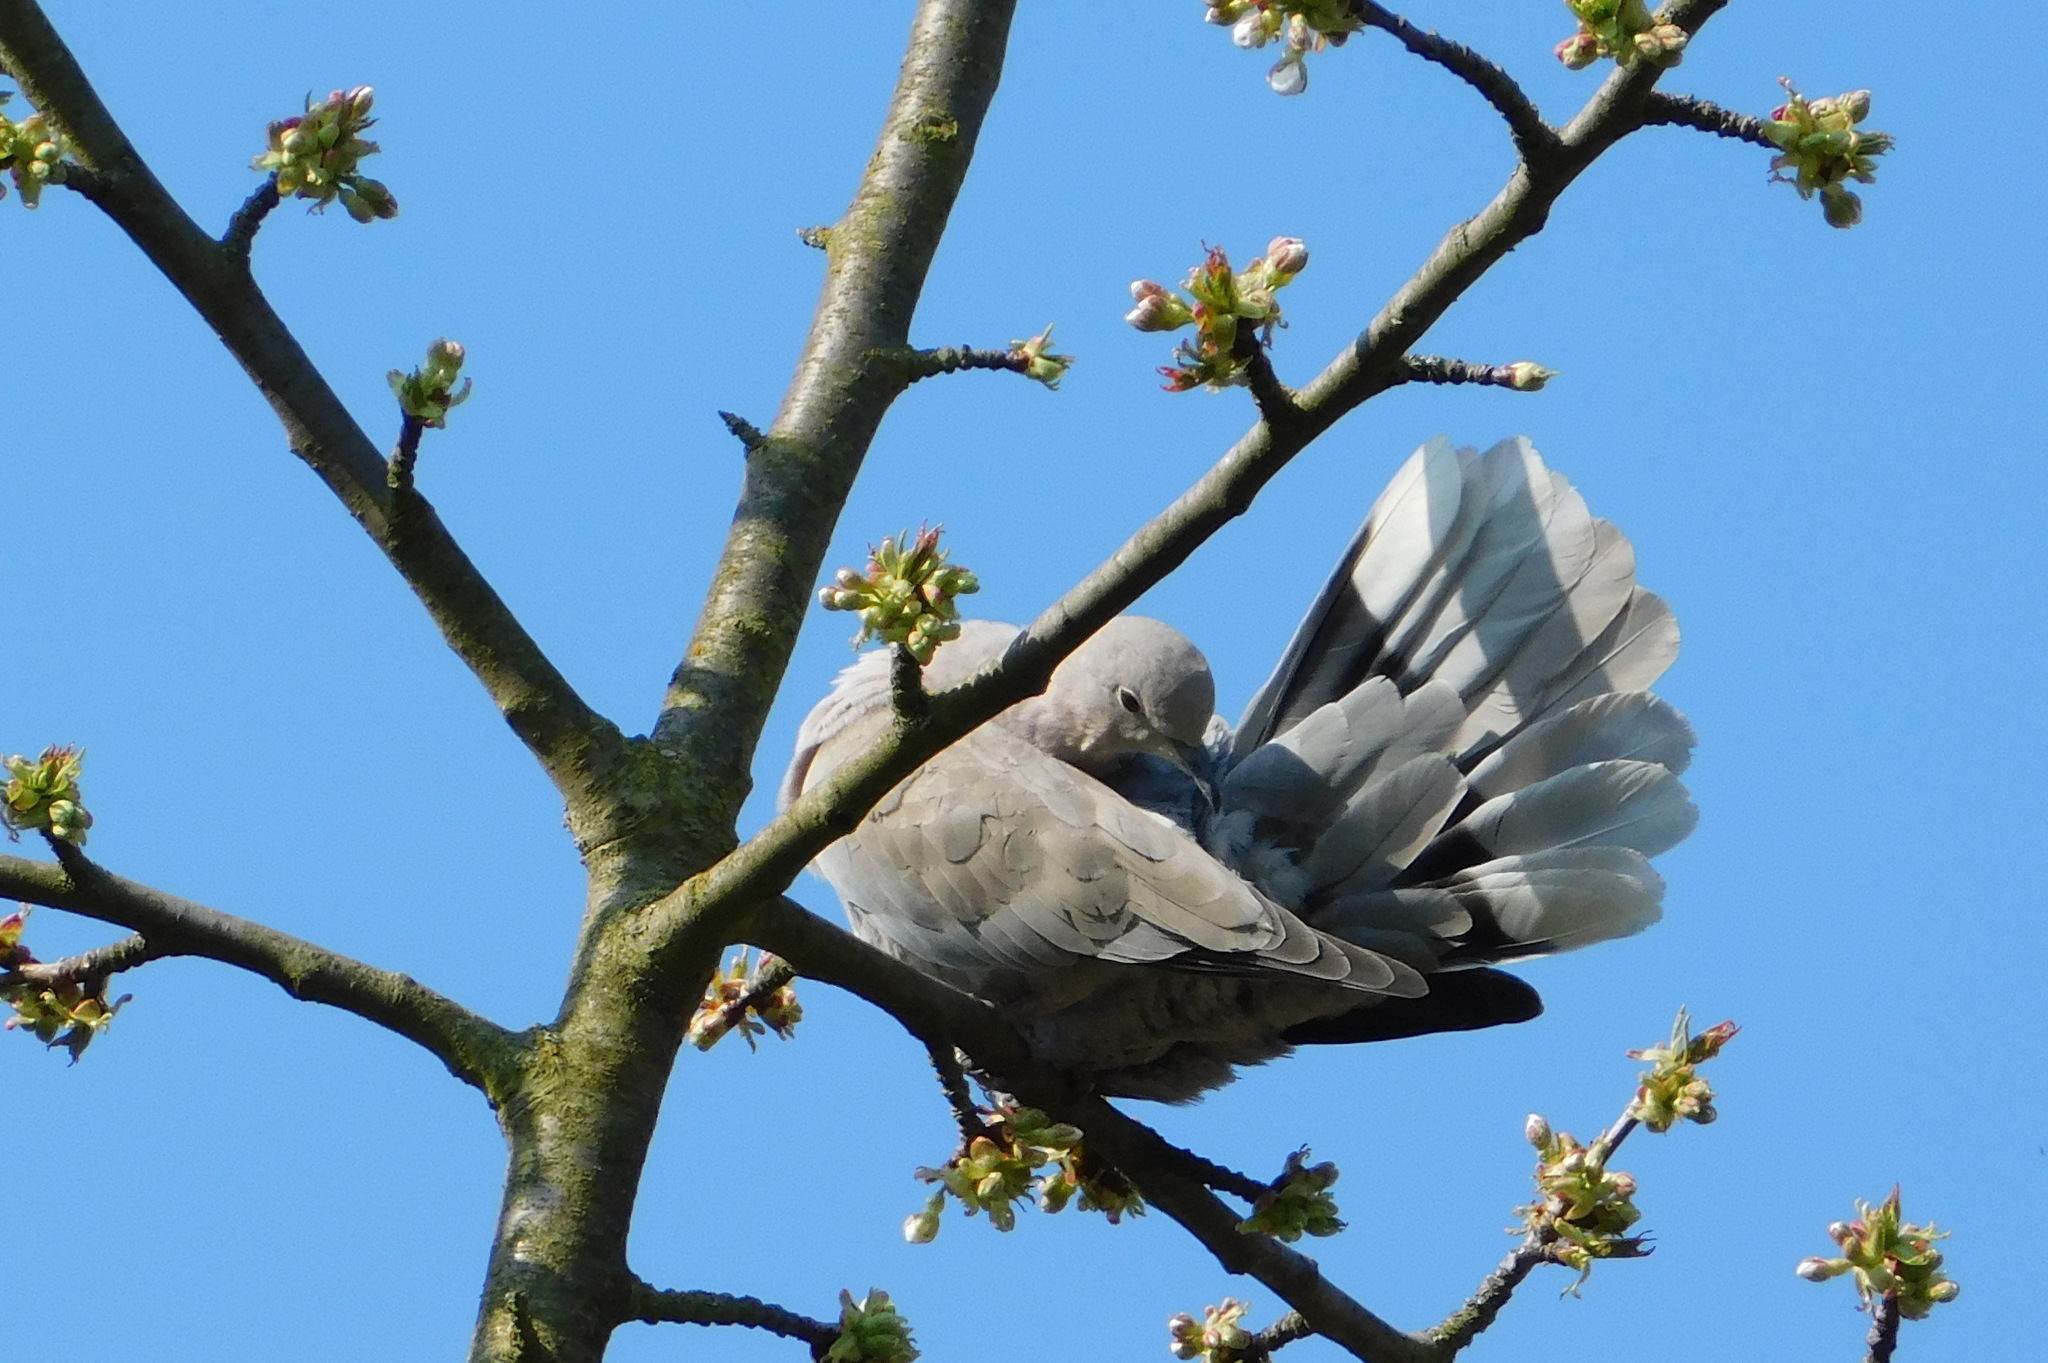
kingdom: Animalia
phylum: Chordata
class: Aves
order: Columbiformes
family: Columbidae
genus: Streptopelia
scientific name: Streptopelia decaocto
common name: Eurasian collared dove
